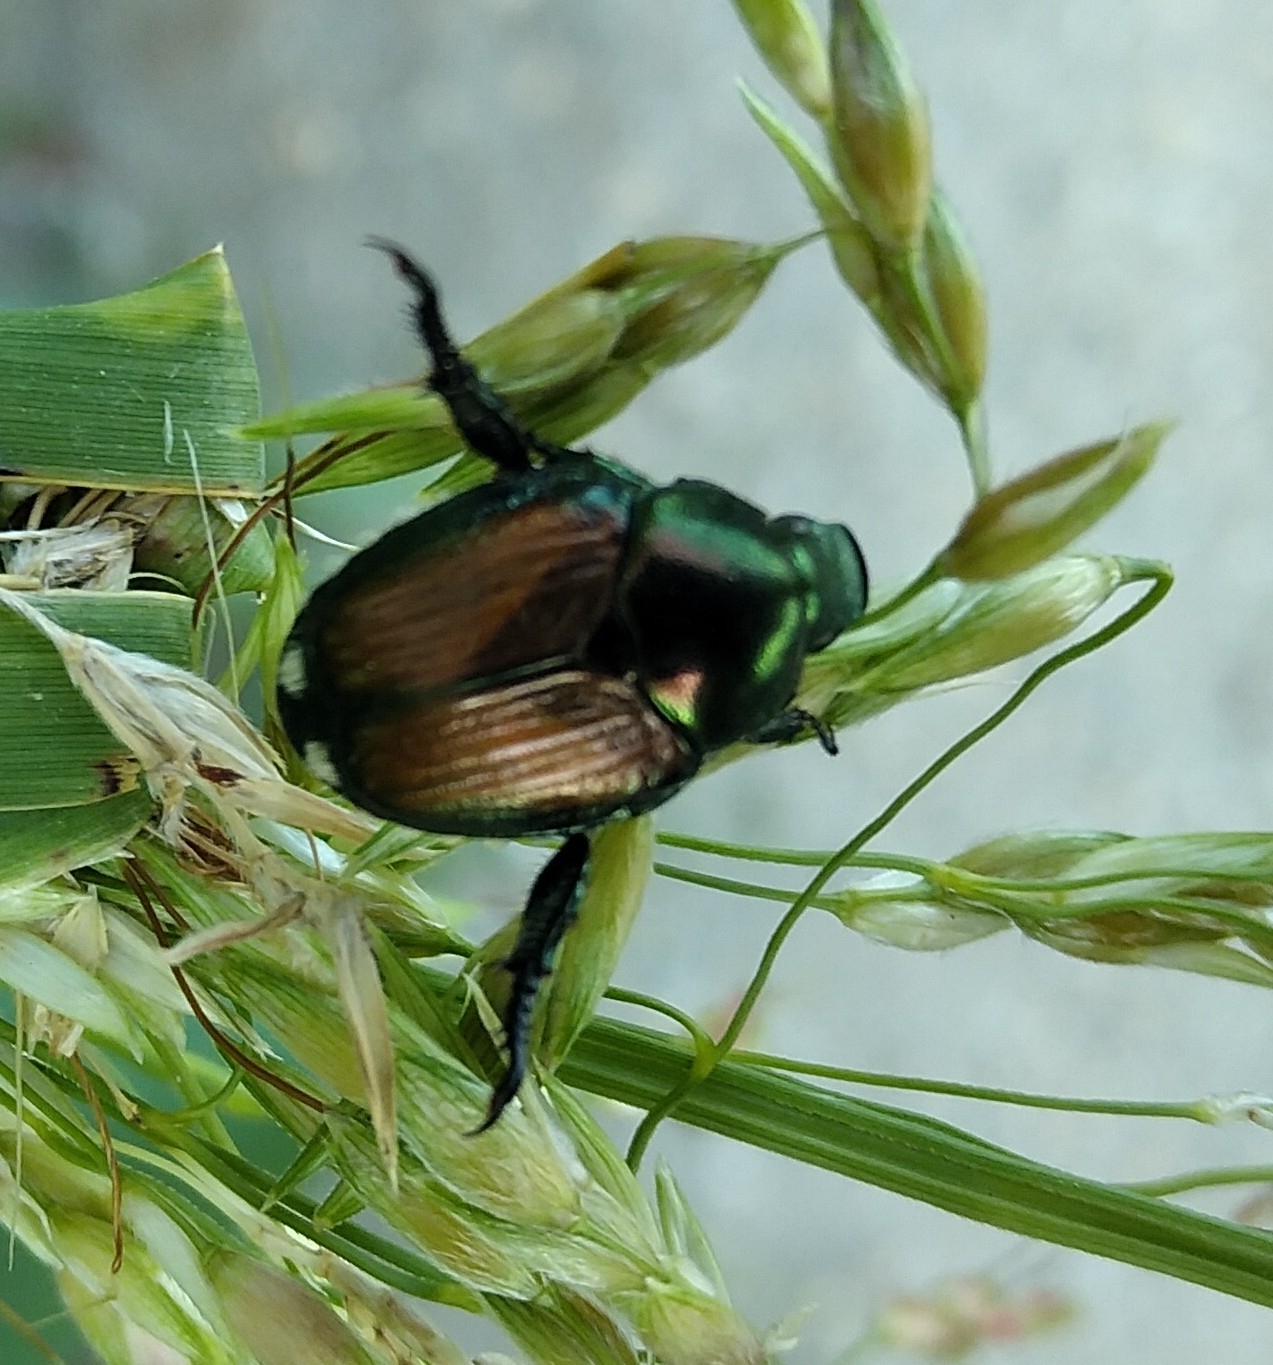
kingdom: Animalia
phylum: Arthropoda
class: Insecta
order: Coleoptera
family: Scarabaeidae
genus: Popillia
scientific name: Popillia japonica
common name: Japanese beetle
